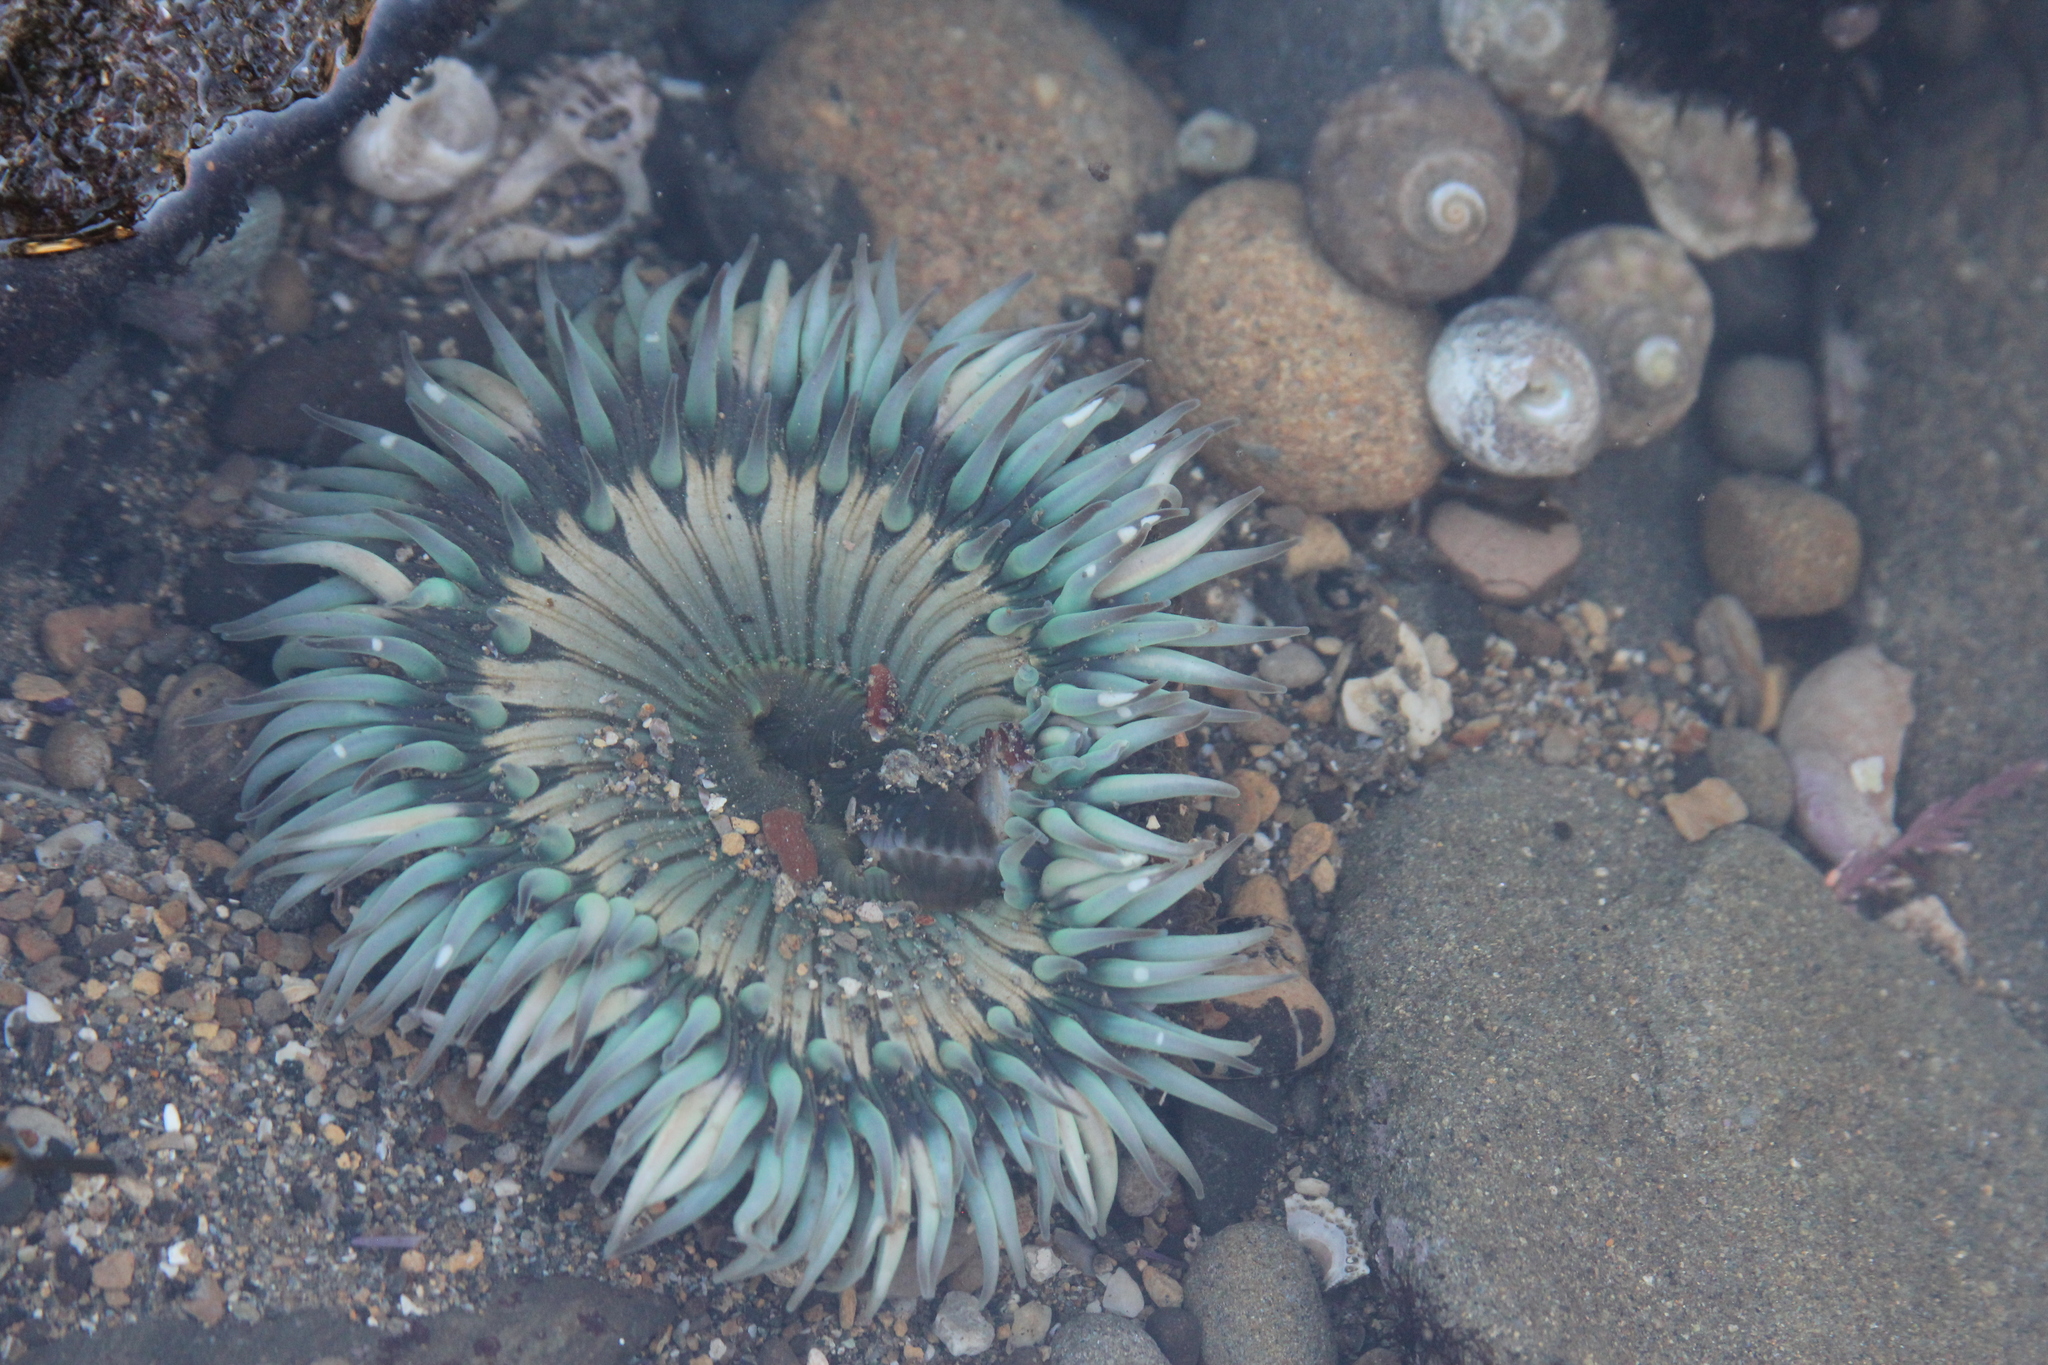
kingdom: Animalia
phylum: Cnidaria
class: Anthozoa
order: Actiniaria
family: Actiniidae
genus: Anthopleura
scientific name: Anthopleura sola
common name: Sun anemone
